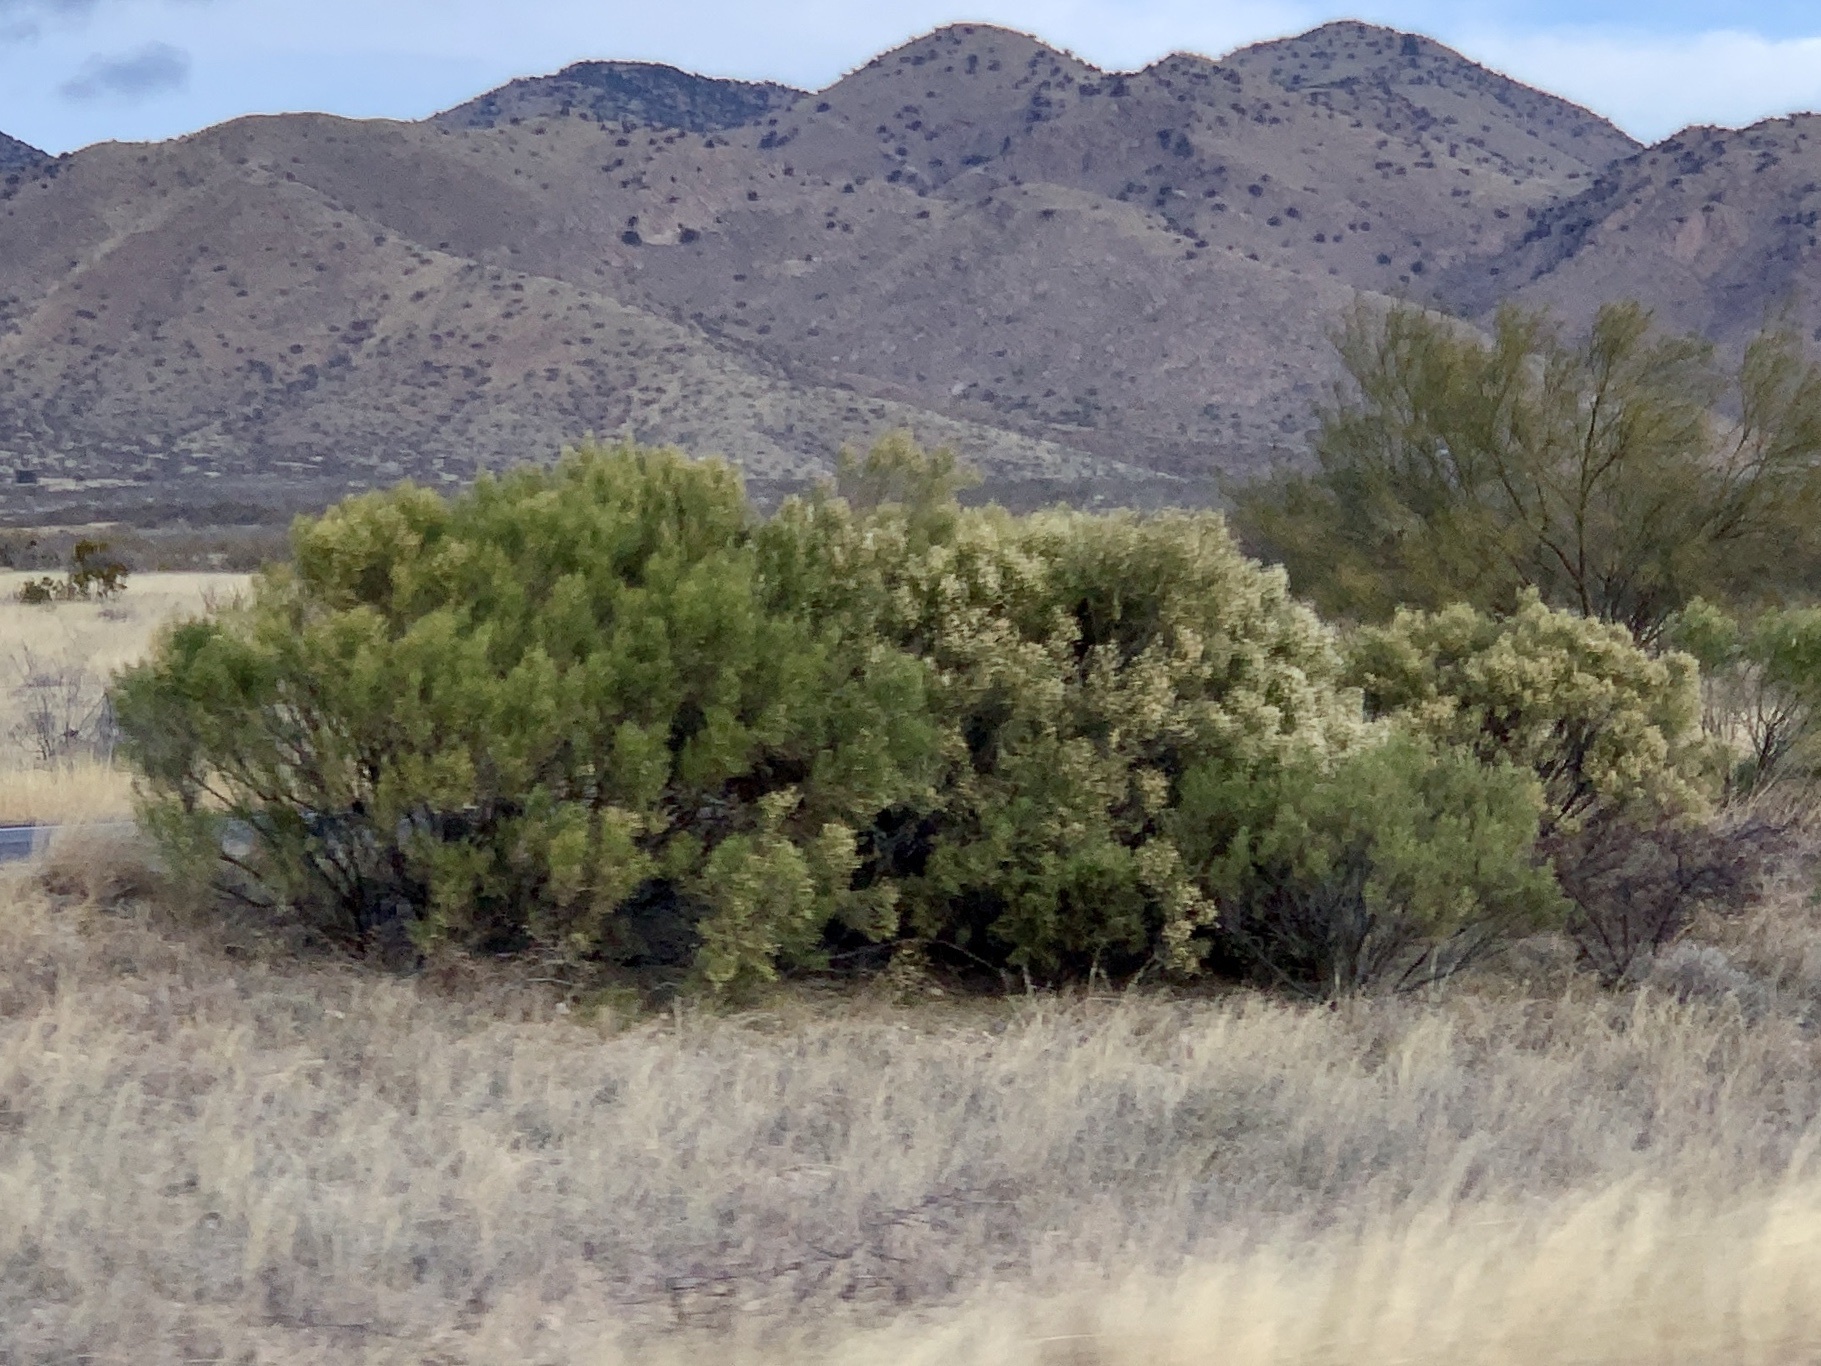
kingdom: Plantae
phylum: Tracheophyta
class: Magnoliopsida
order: Asterales
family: Asteraceae
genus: Baccharis
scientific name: Baccharis sarothroides
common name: Desert-broom
